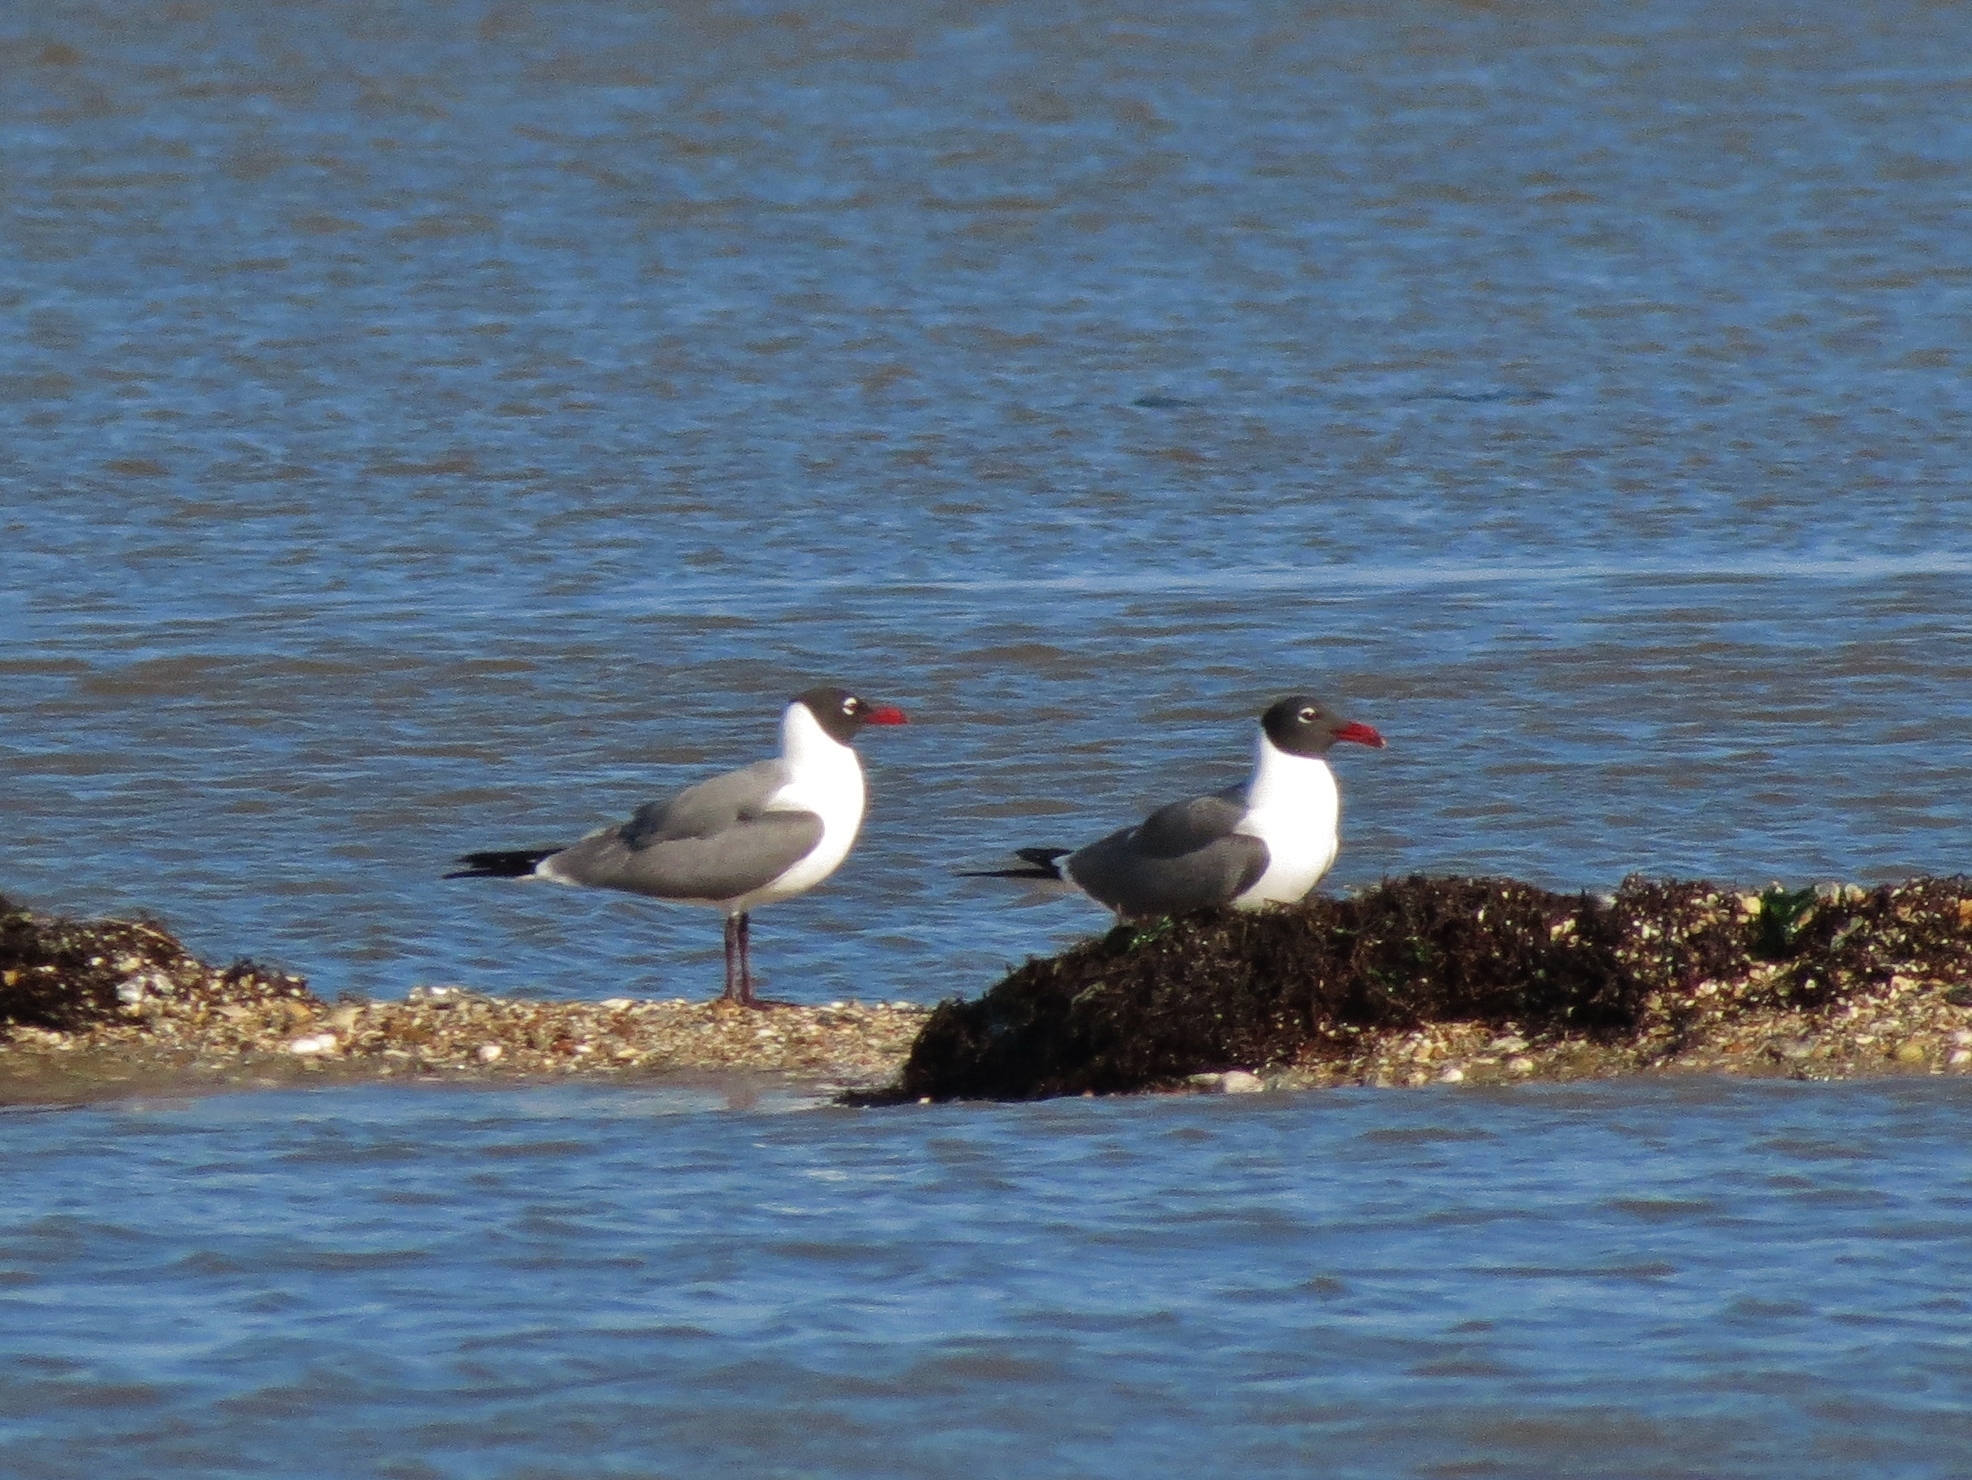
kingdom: Animalia
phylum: Chordata
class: Aves
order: Charadriiformes
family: Laridae
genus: Leucophaeus
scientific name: Leucophaeus atricilla
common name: Laughing gull
